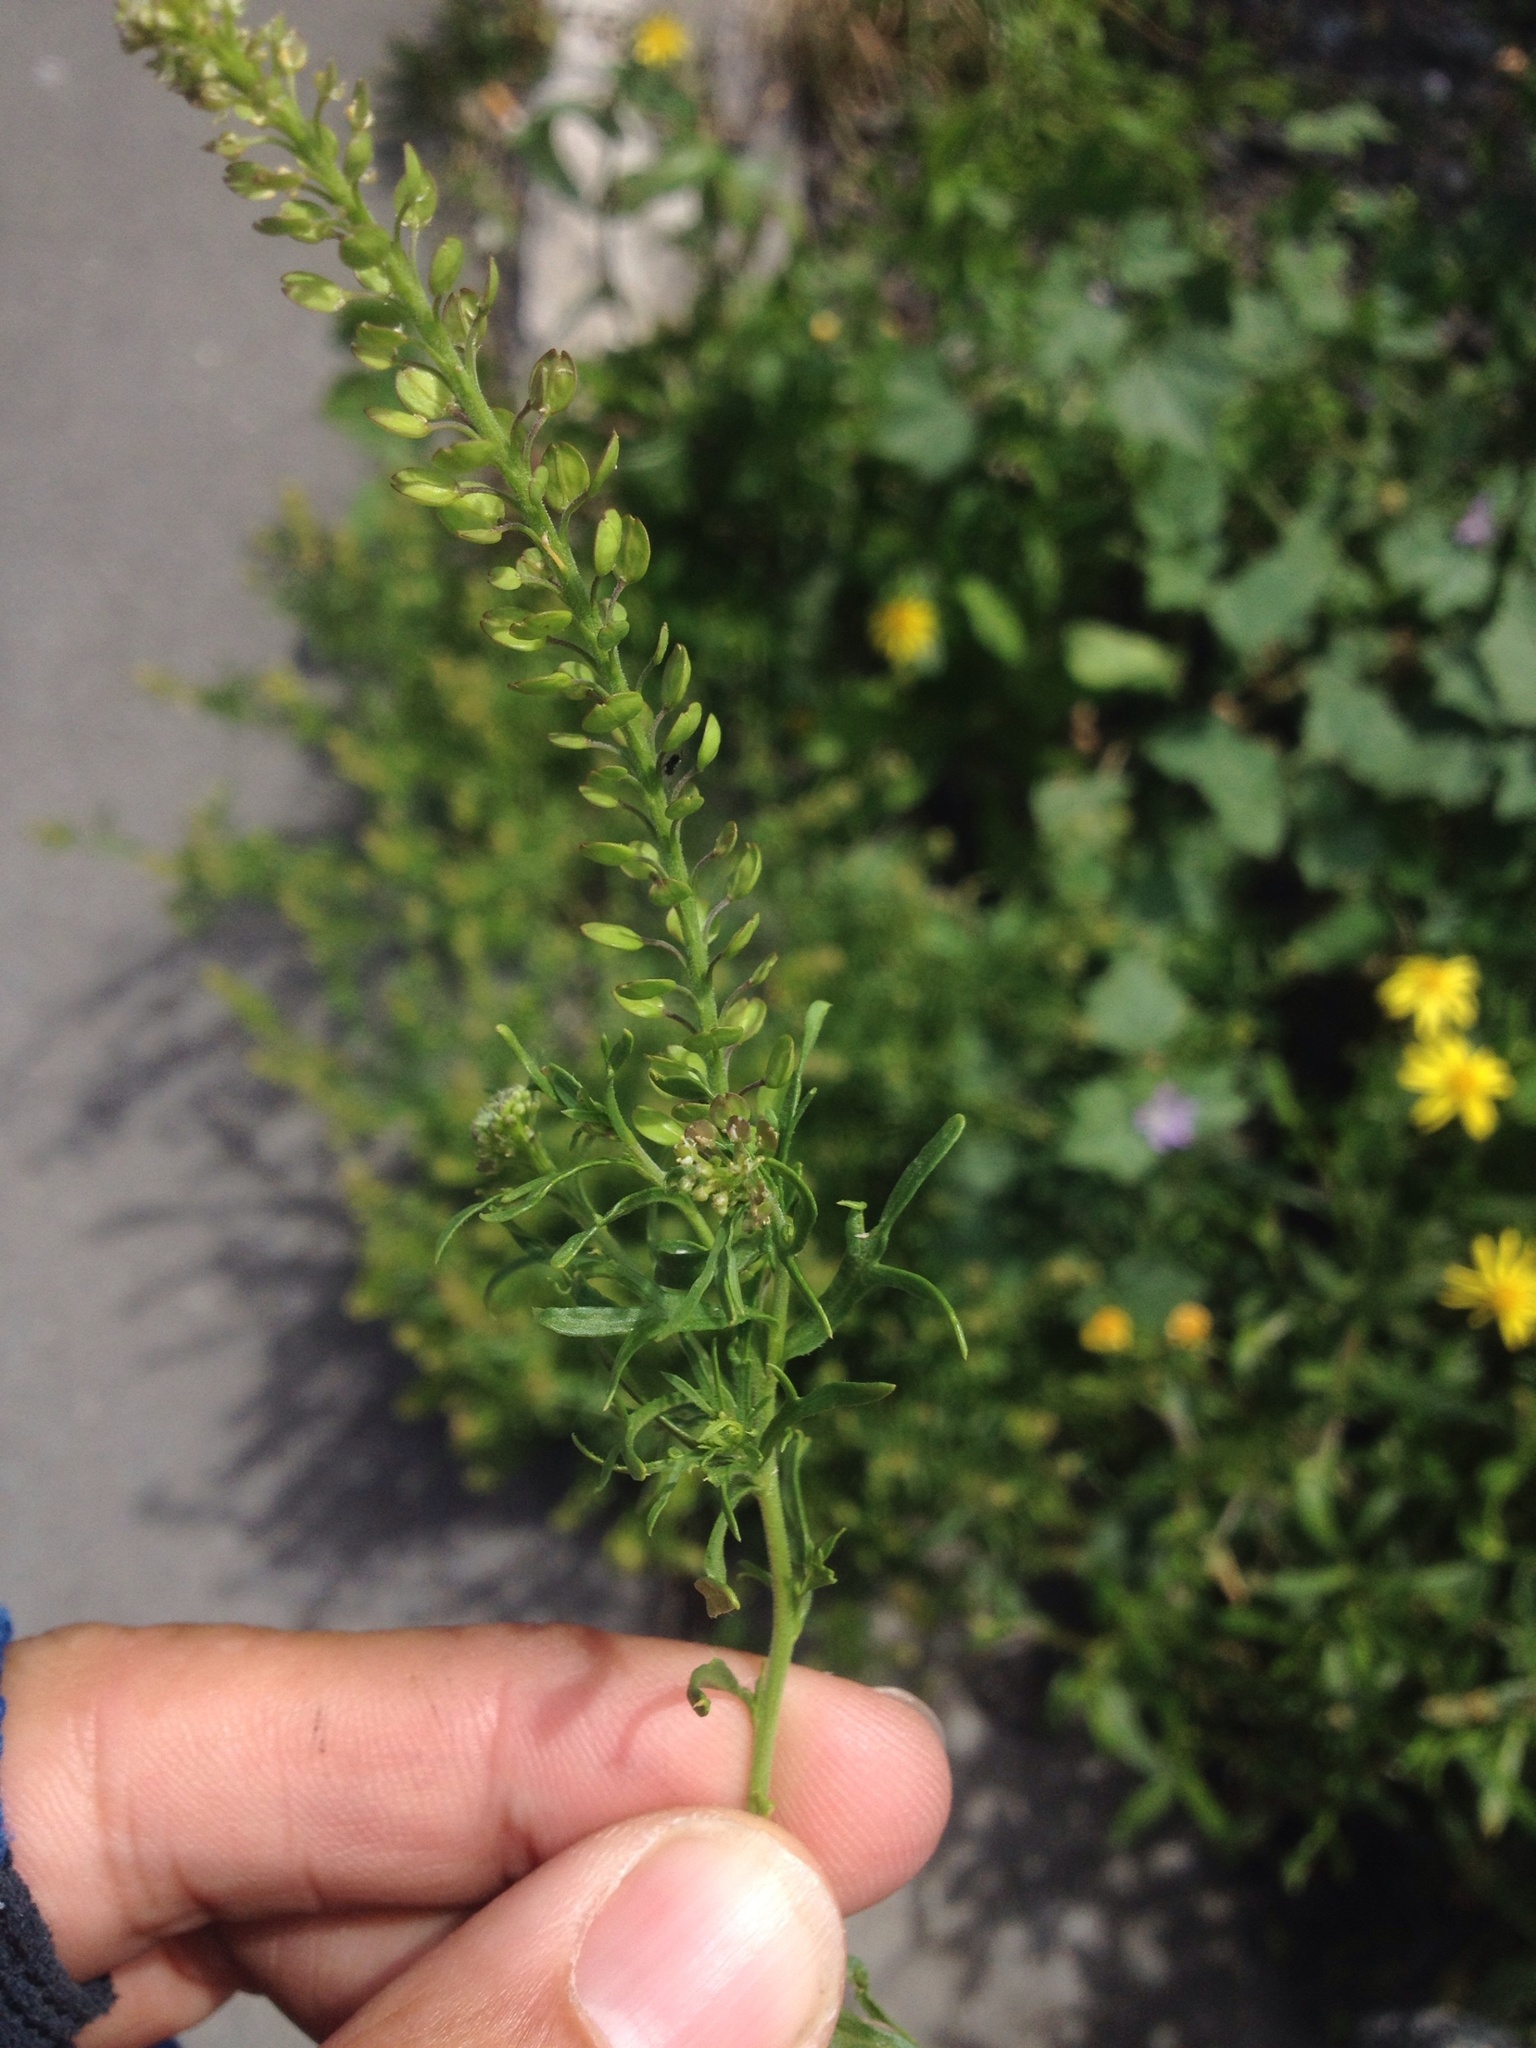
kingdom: Plantae
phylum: Tracheophyta
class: Magnoliopsida
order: Brassicales
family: Brassicaceae
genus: Lepidium
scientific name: Lepidium africanum
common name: African pepperwort
